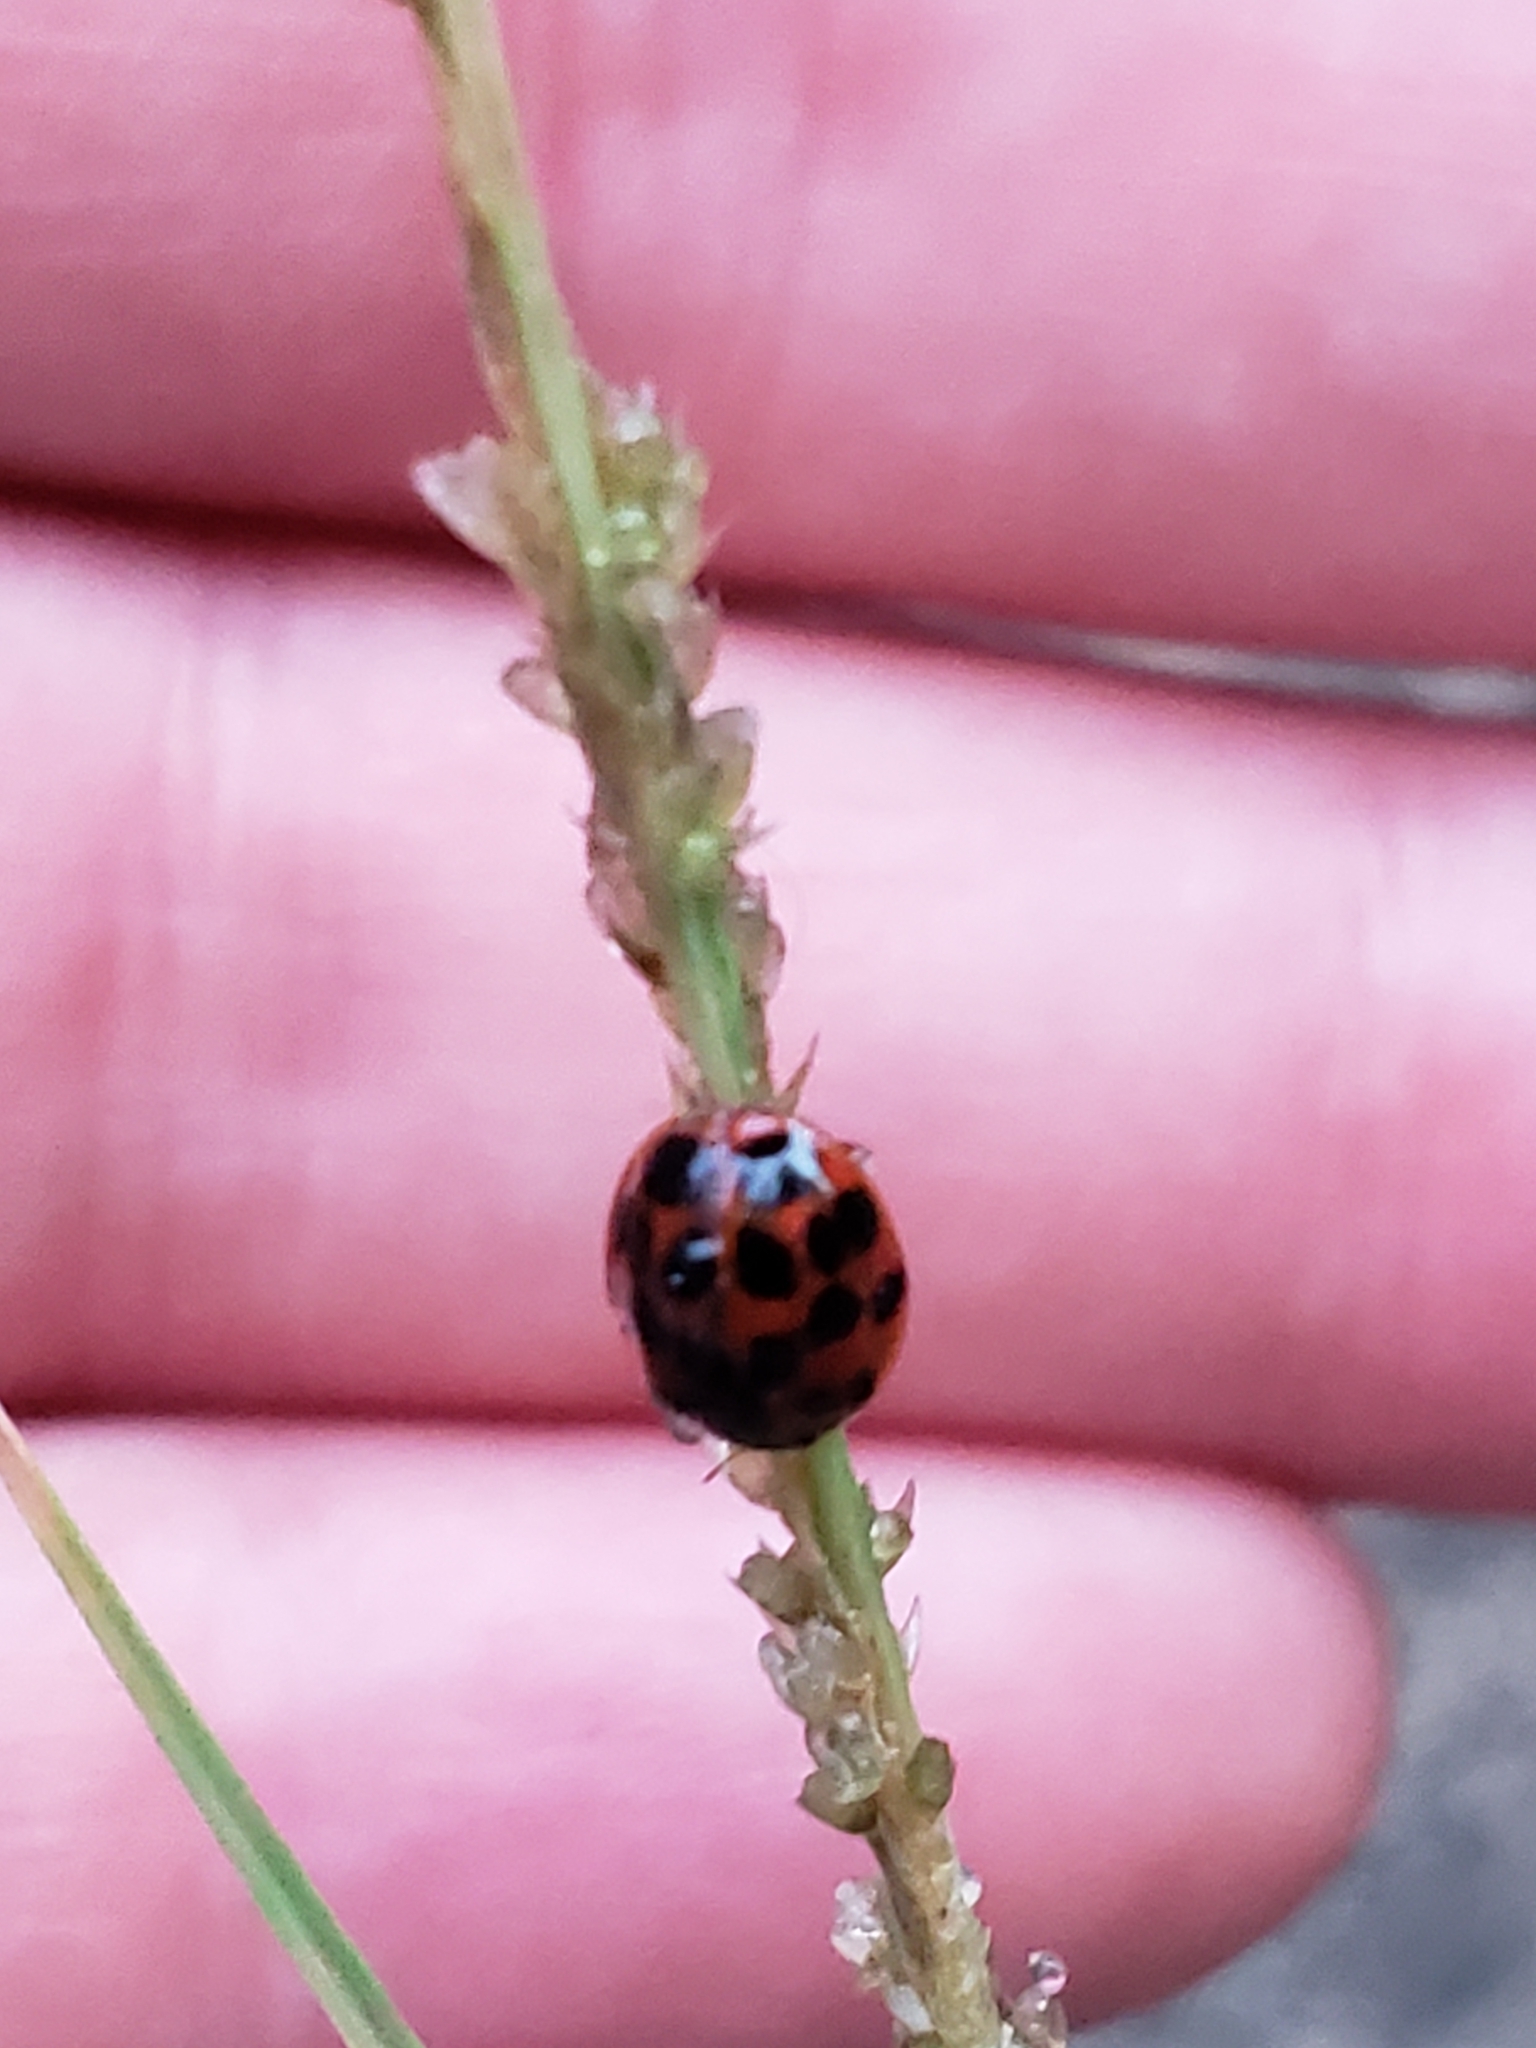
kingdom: Animalia
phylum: Arthropoda
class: Insecta
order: Coleoptera
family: Coccinellidae
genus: Harmonia
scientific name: Harmonia axyridis
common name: Harlequin ladybird
